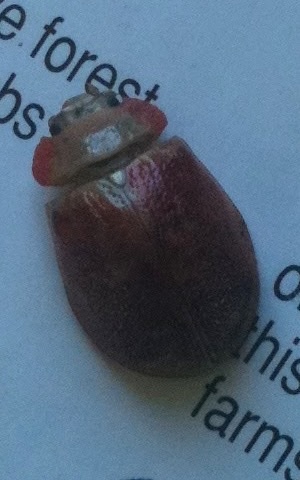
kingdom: Animalia
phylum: Arthropoda
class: Insecta
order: Coleoptera
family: Chrysomelidae
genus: Paropsis
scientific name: Paropsis charybdis
